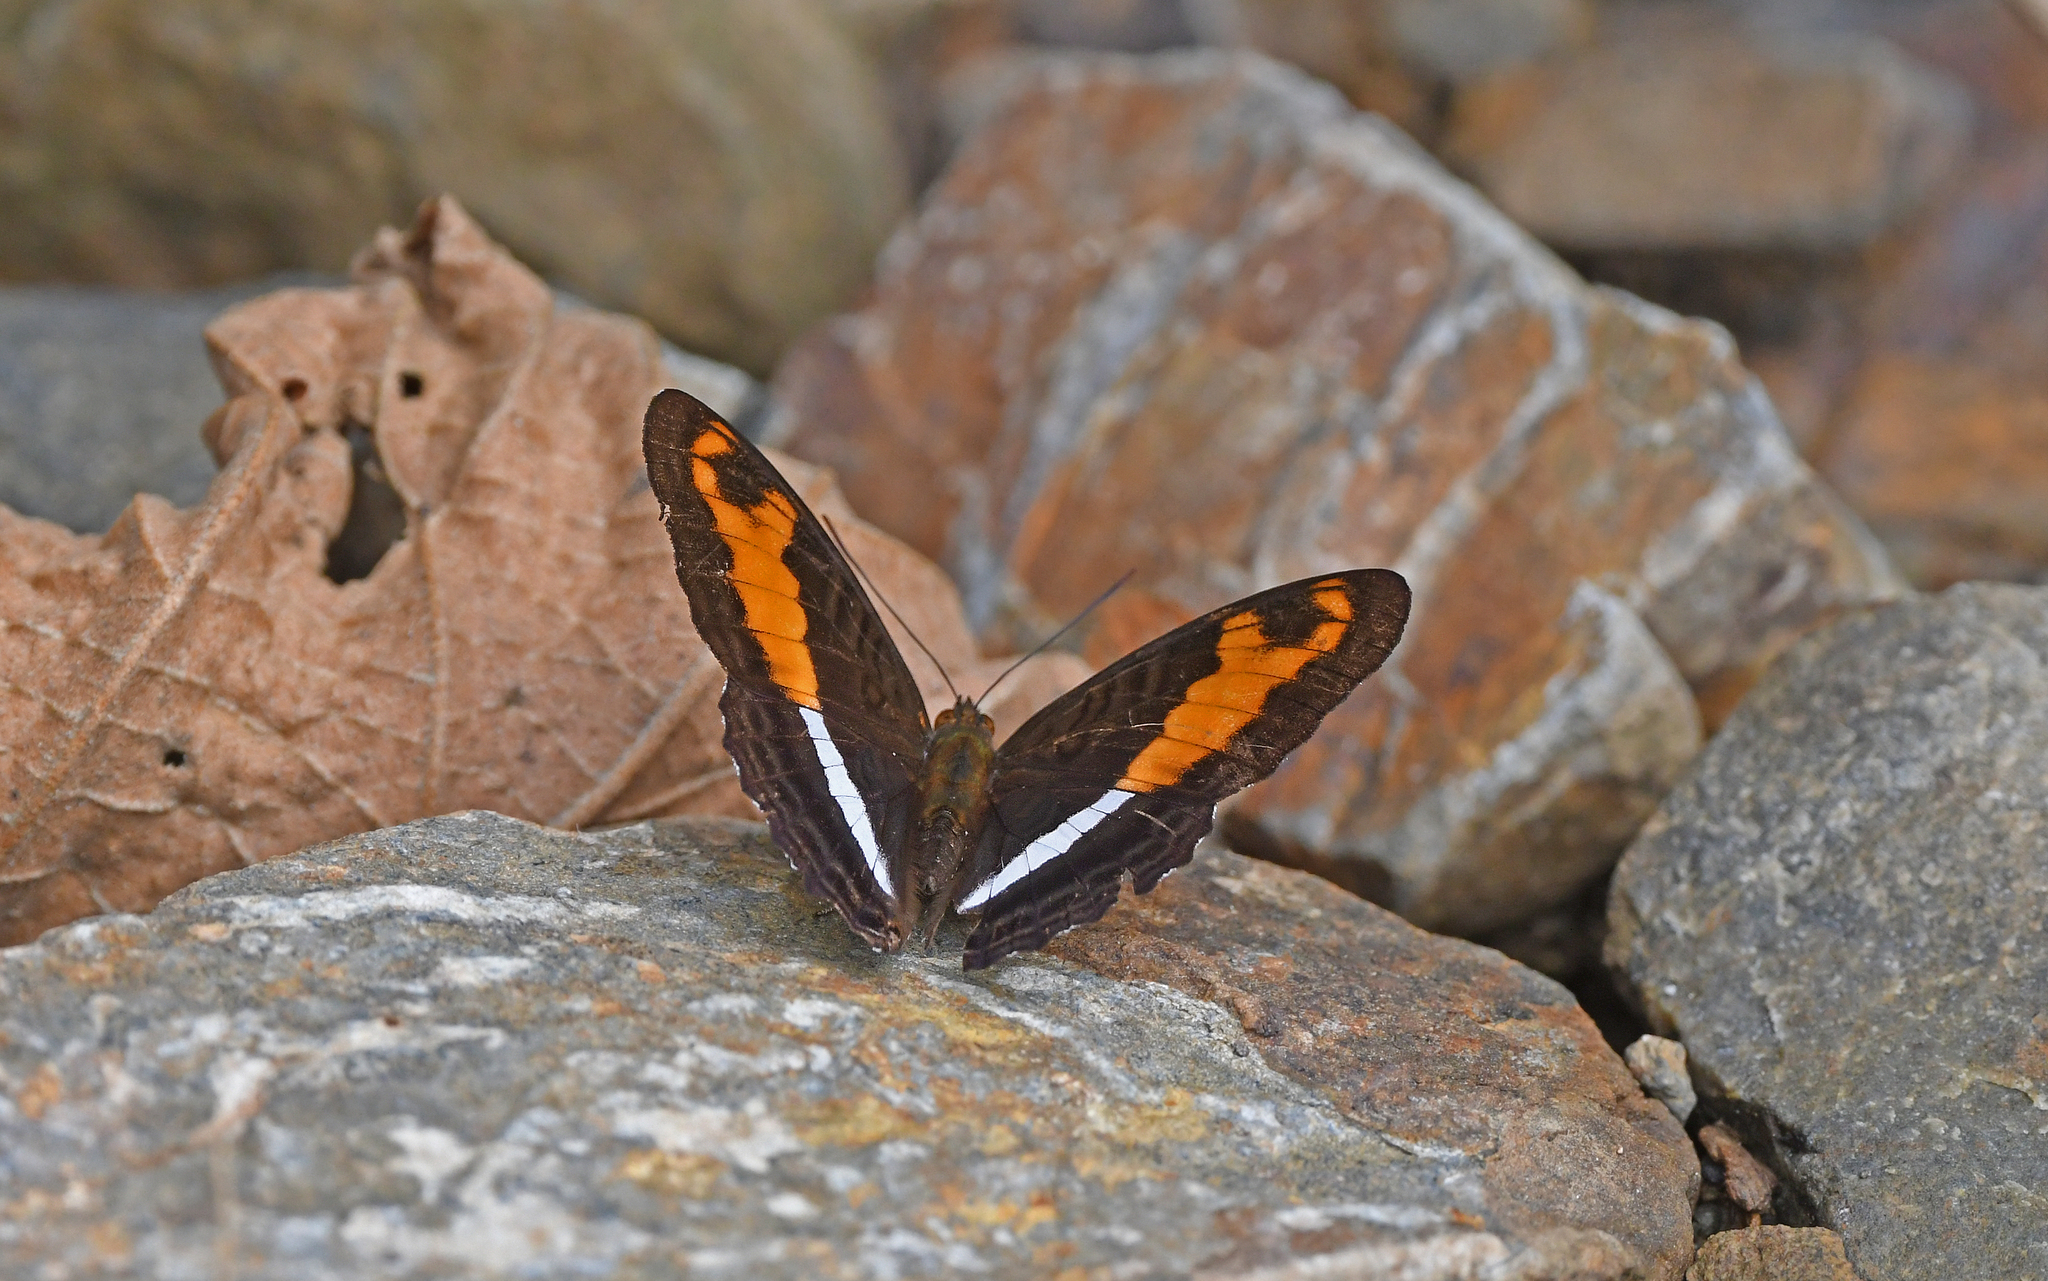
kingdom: Animalia
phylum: Arthropoda
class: Insecta
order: Lepidoptera
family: Nymphalidae
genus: Limenitis
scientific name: Limenitis sichaeus
